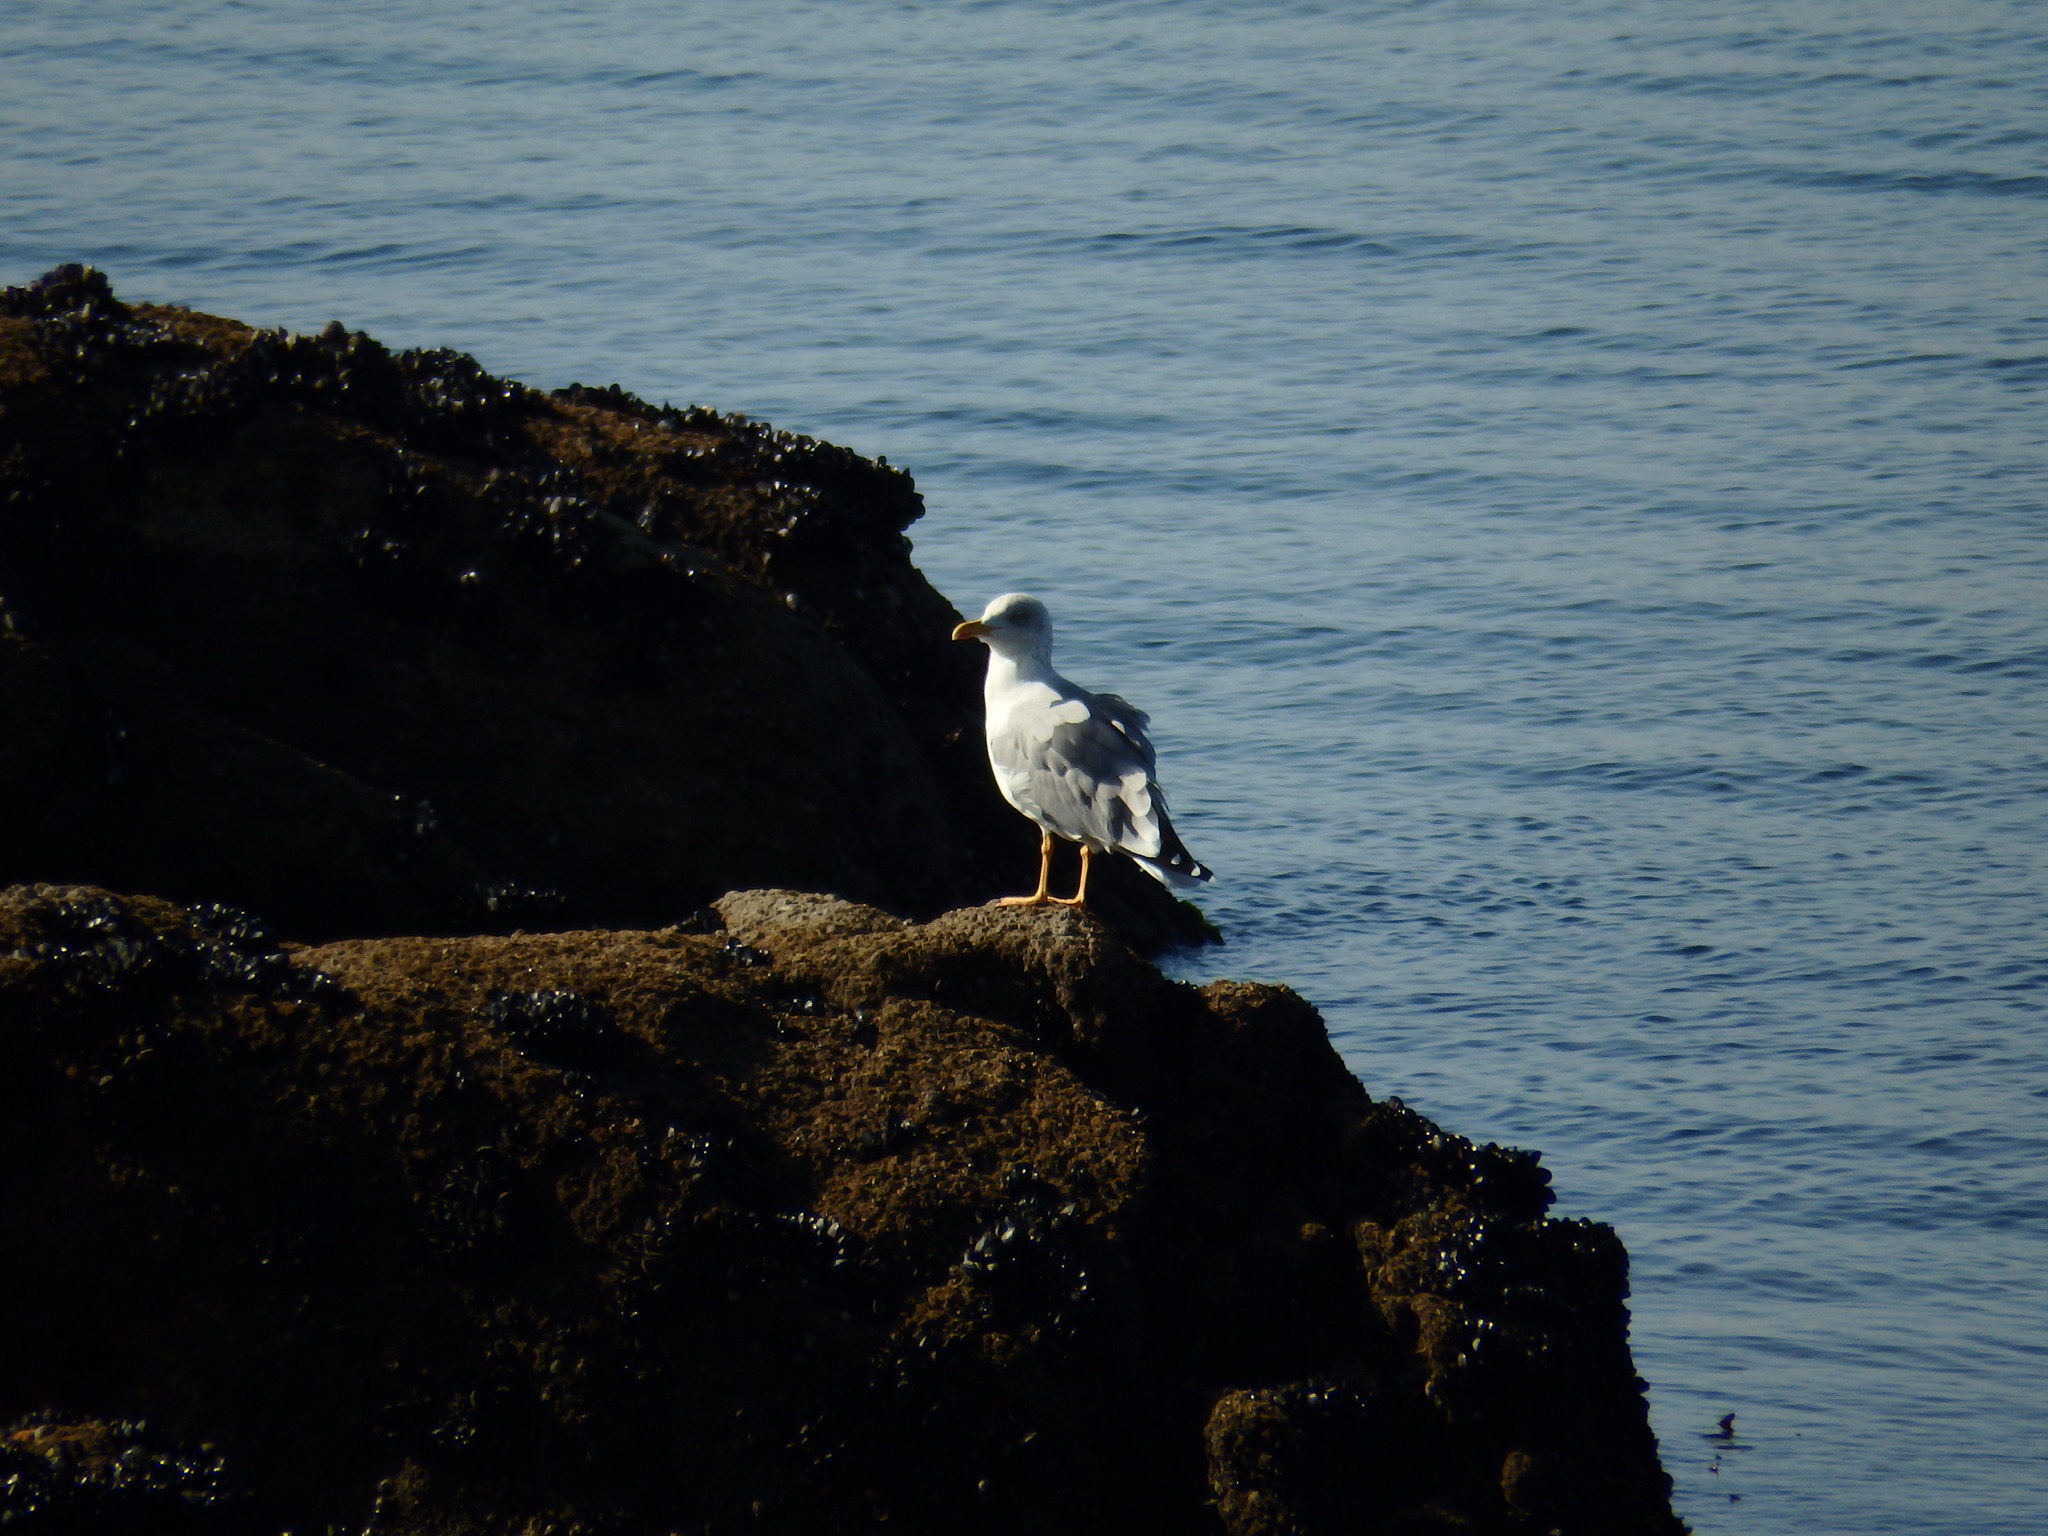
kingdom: Animalia
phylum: Chordata
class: Aves
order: Charadriiformes
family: Laridae
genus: Larus
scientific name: Larus michahellis
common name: Yellow-legged gull
